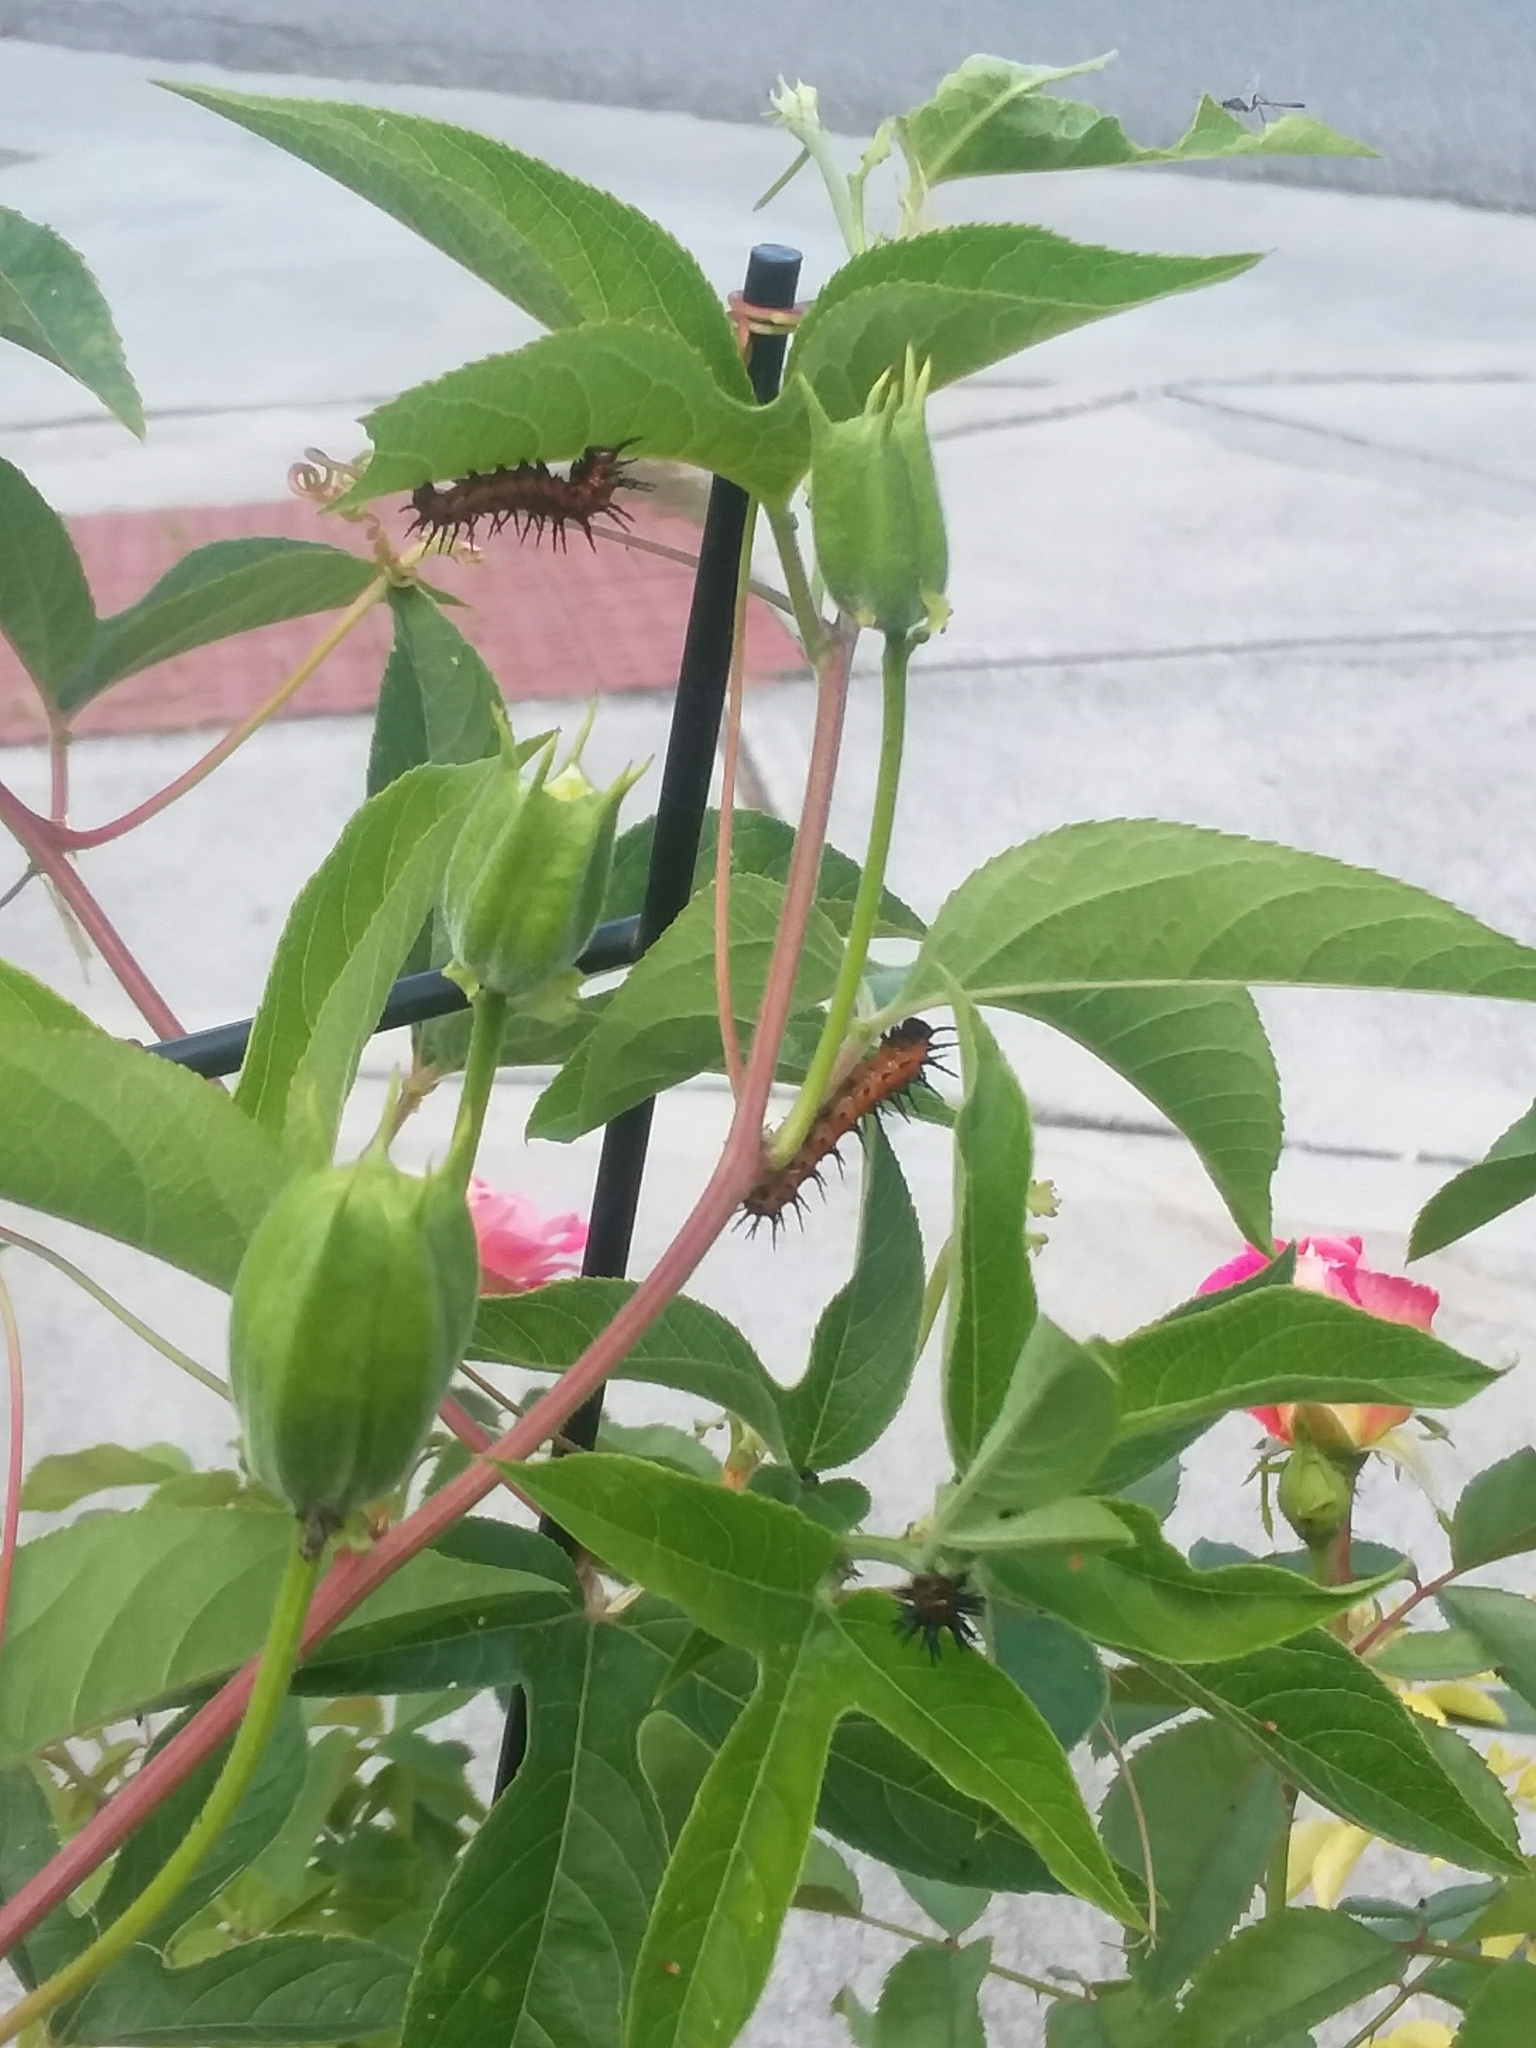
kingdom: Animalia
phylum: Arthropoda
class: Insecta
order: Lepidoptera
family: Nymphalidae
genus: Dione
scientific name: Dione vanillae
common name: Gulf fritillary
